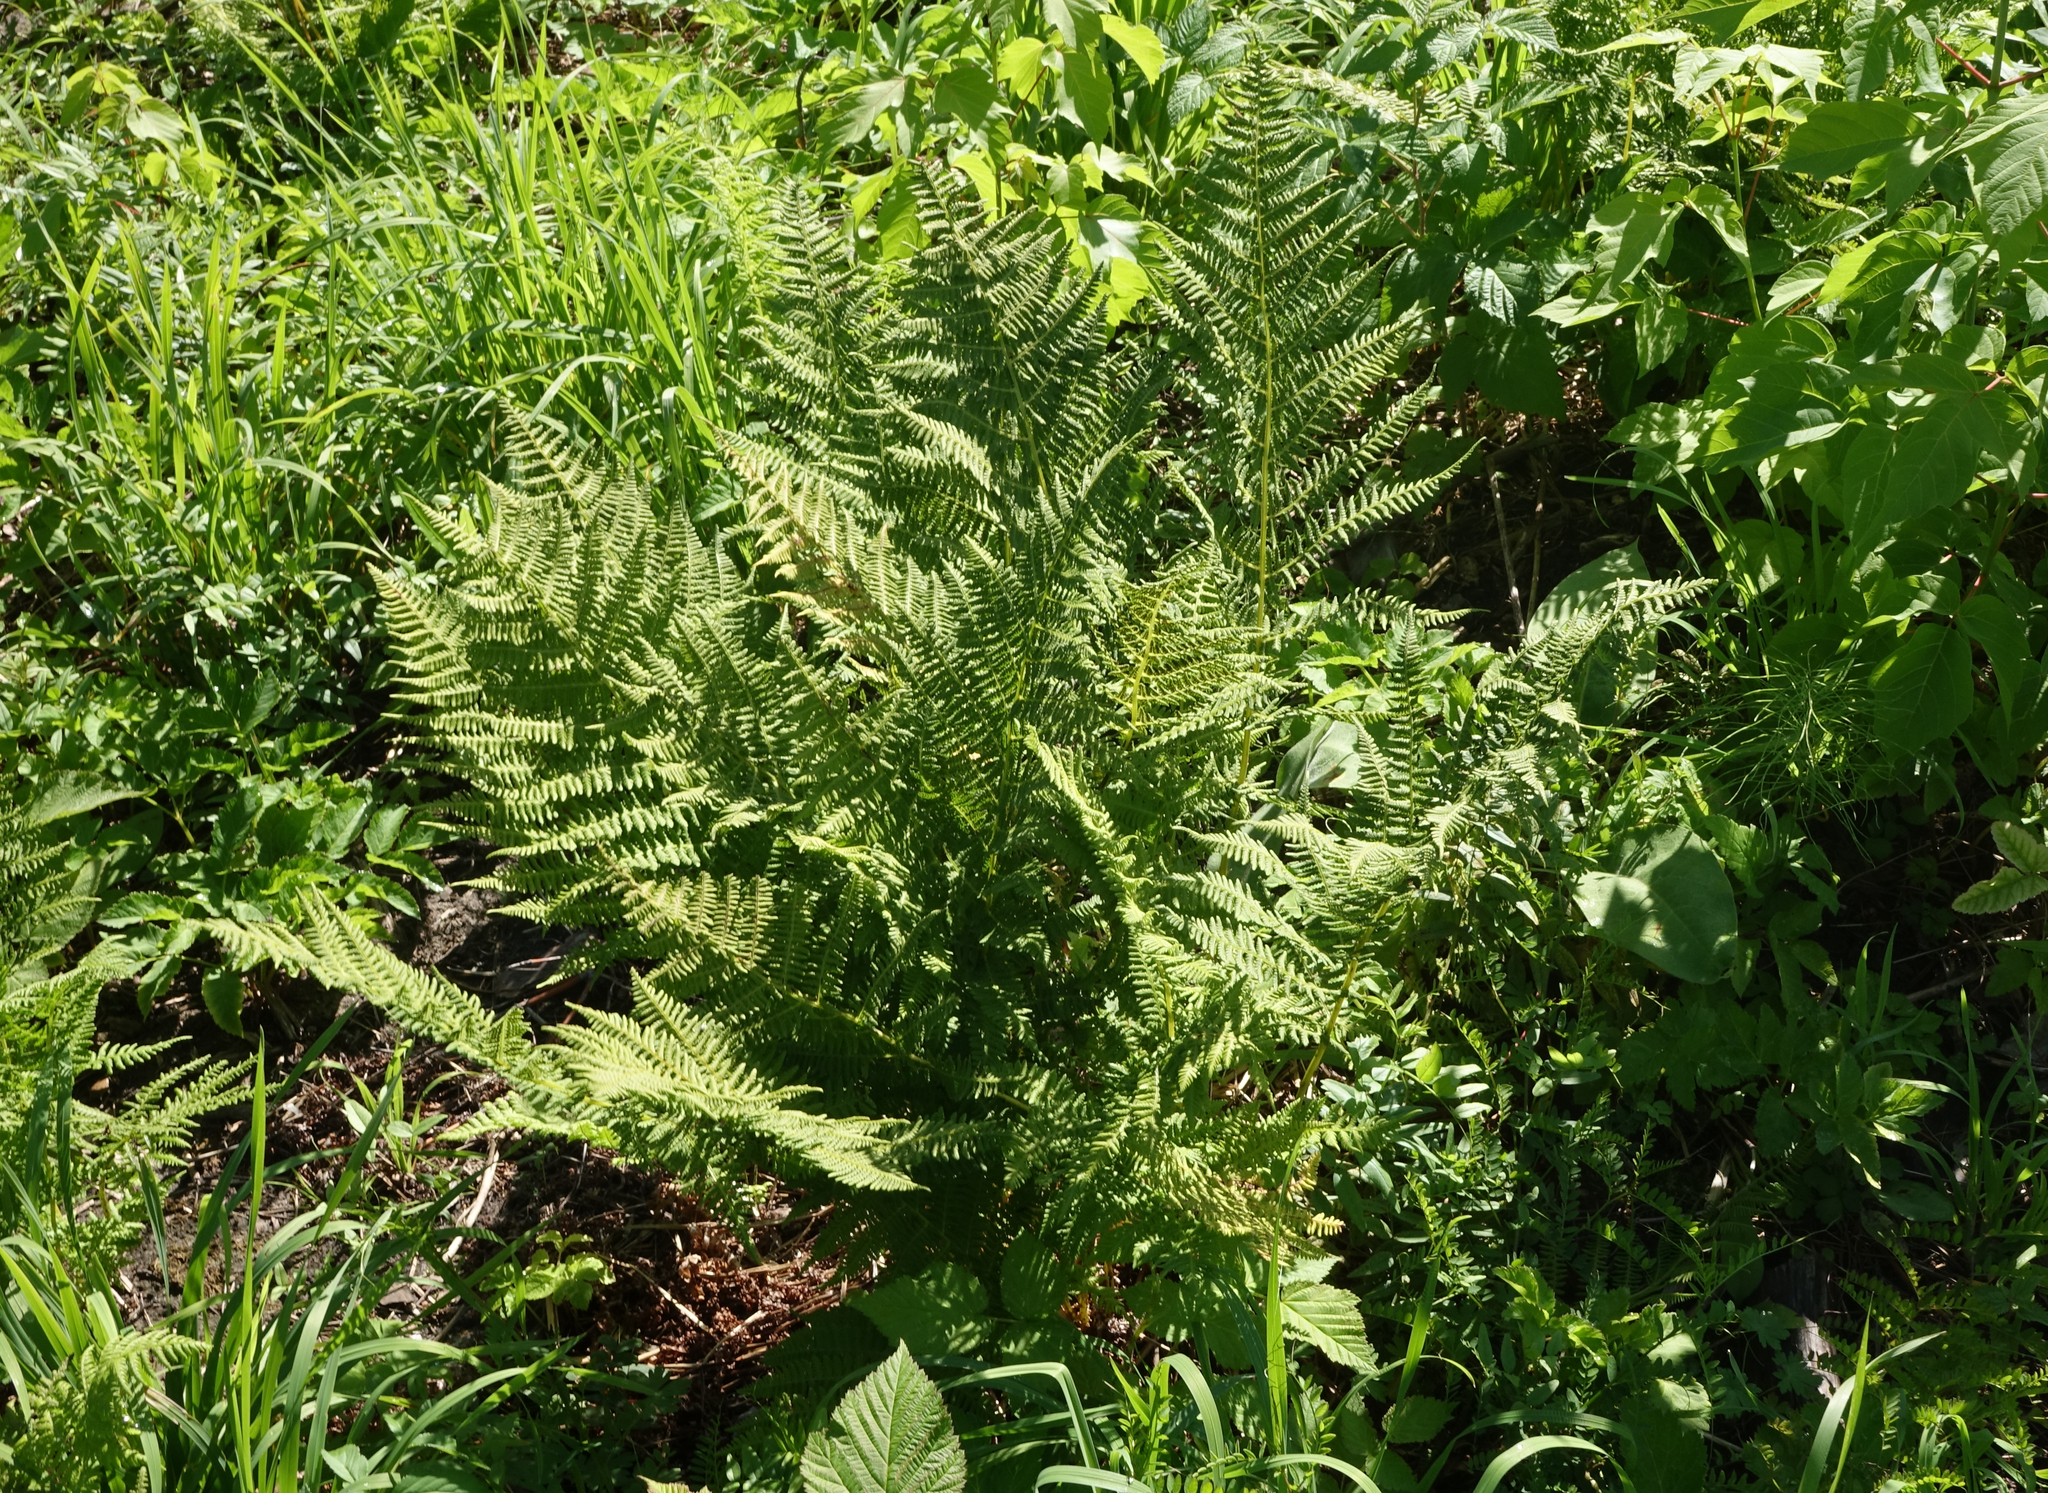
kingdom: Plantae
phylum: Tracheophyta
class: Polypodiopsida
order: Polypodiales
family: Athyriaceae
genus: Athyrium
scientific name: Athyrium filix-femina
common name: Lady fern
